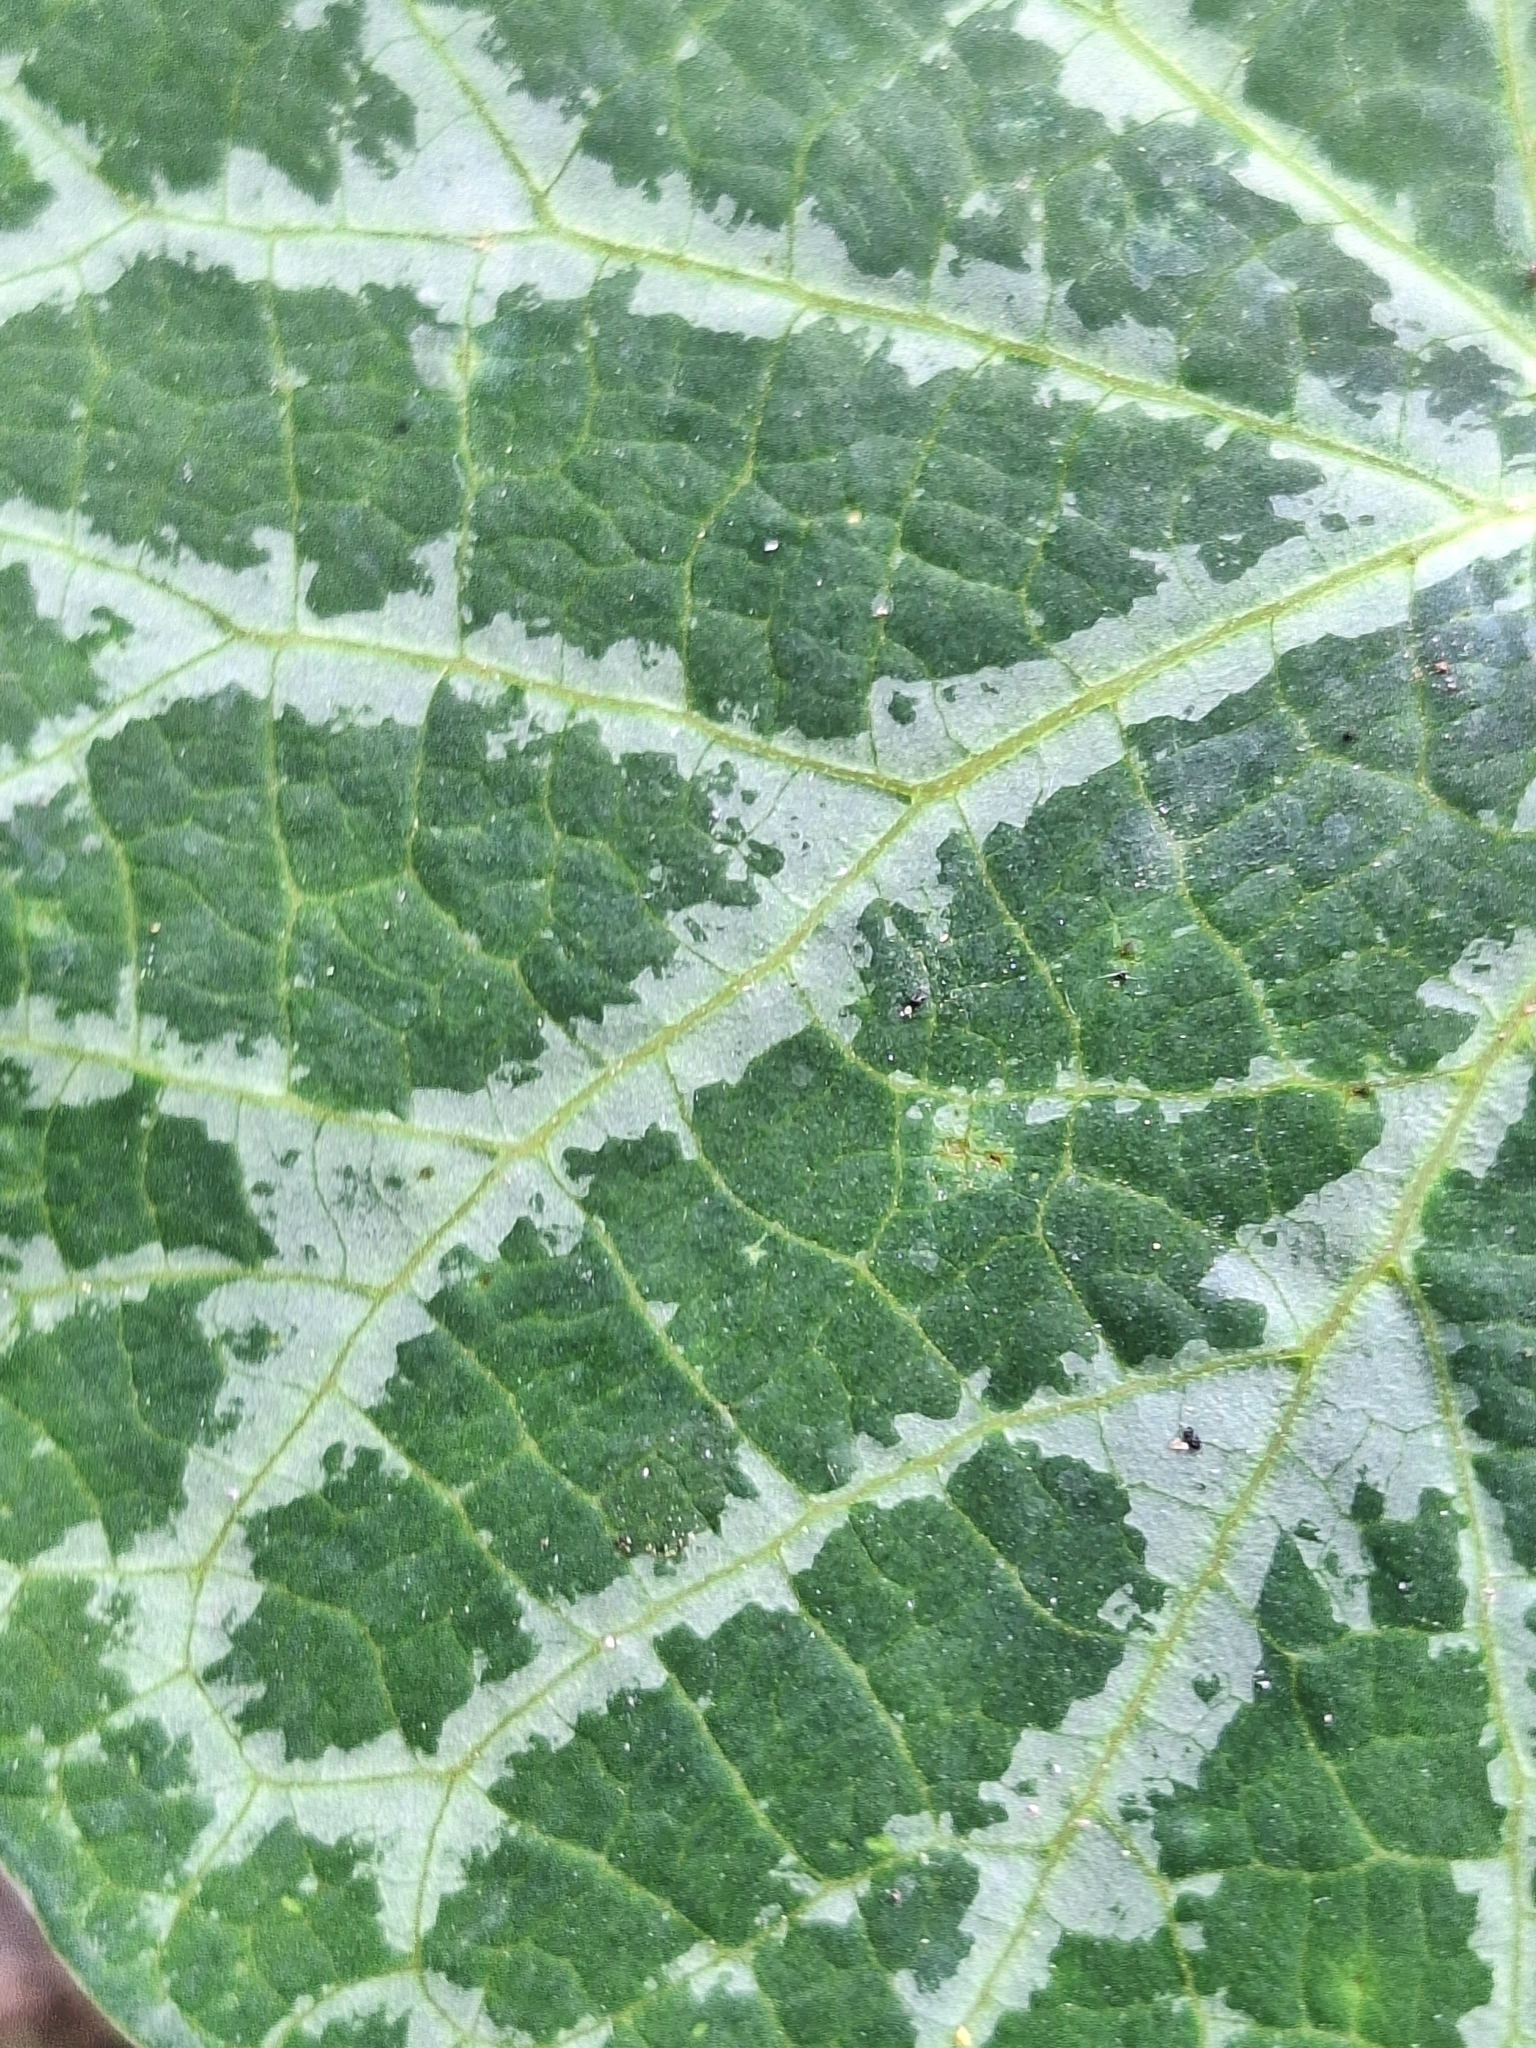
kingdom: Plantae
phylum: Tracheophyta
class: Magnoliopsida
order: Piperales
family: Aristolochiaceae
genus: Aristolochia
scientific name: Aristolochia fimbriata
